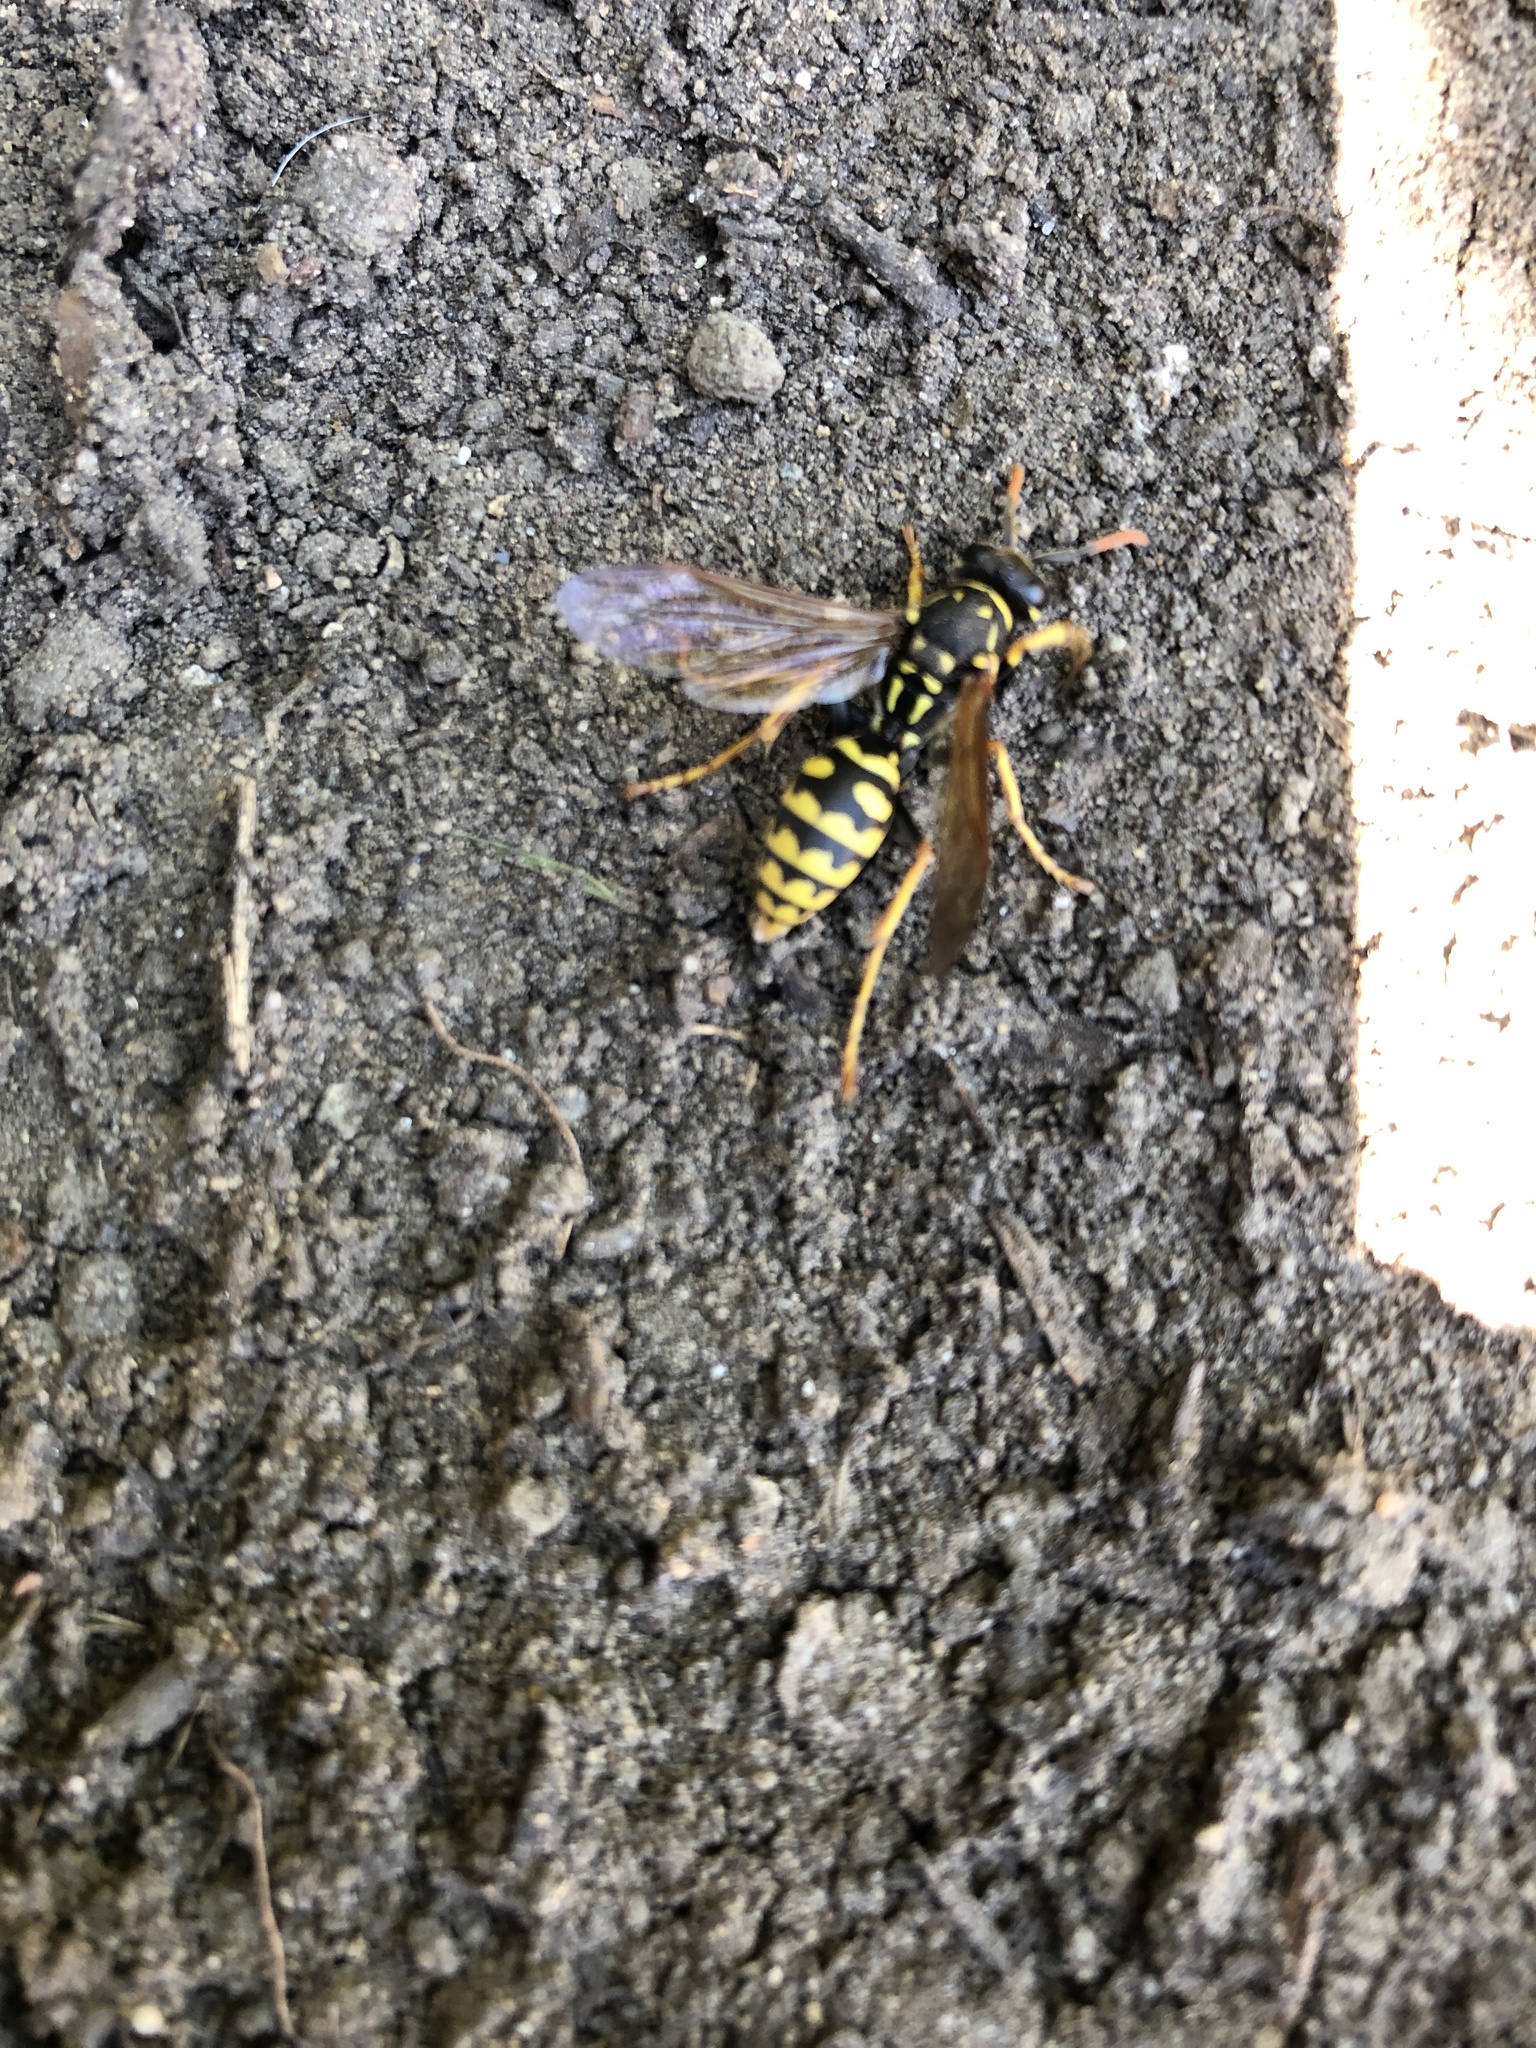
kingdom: Animalia
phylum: Arthropoda
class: Insecta
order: Hymenoptera
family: Eumenidae
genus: Polistes
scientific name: Polistes dominula
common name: Paper wasp
